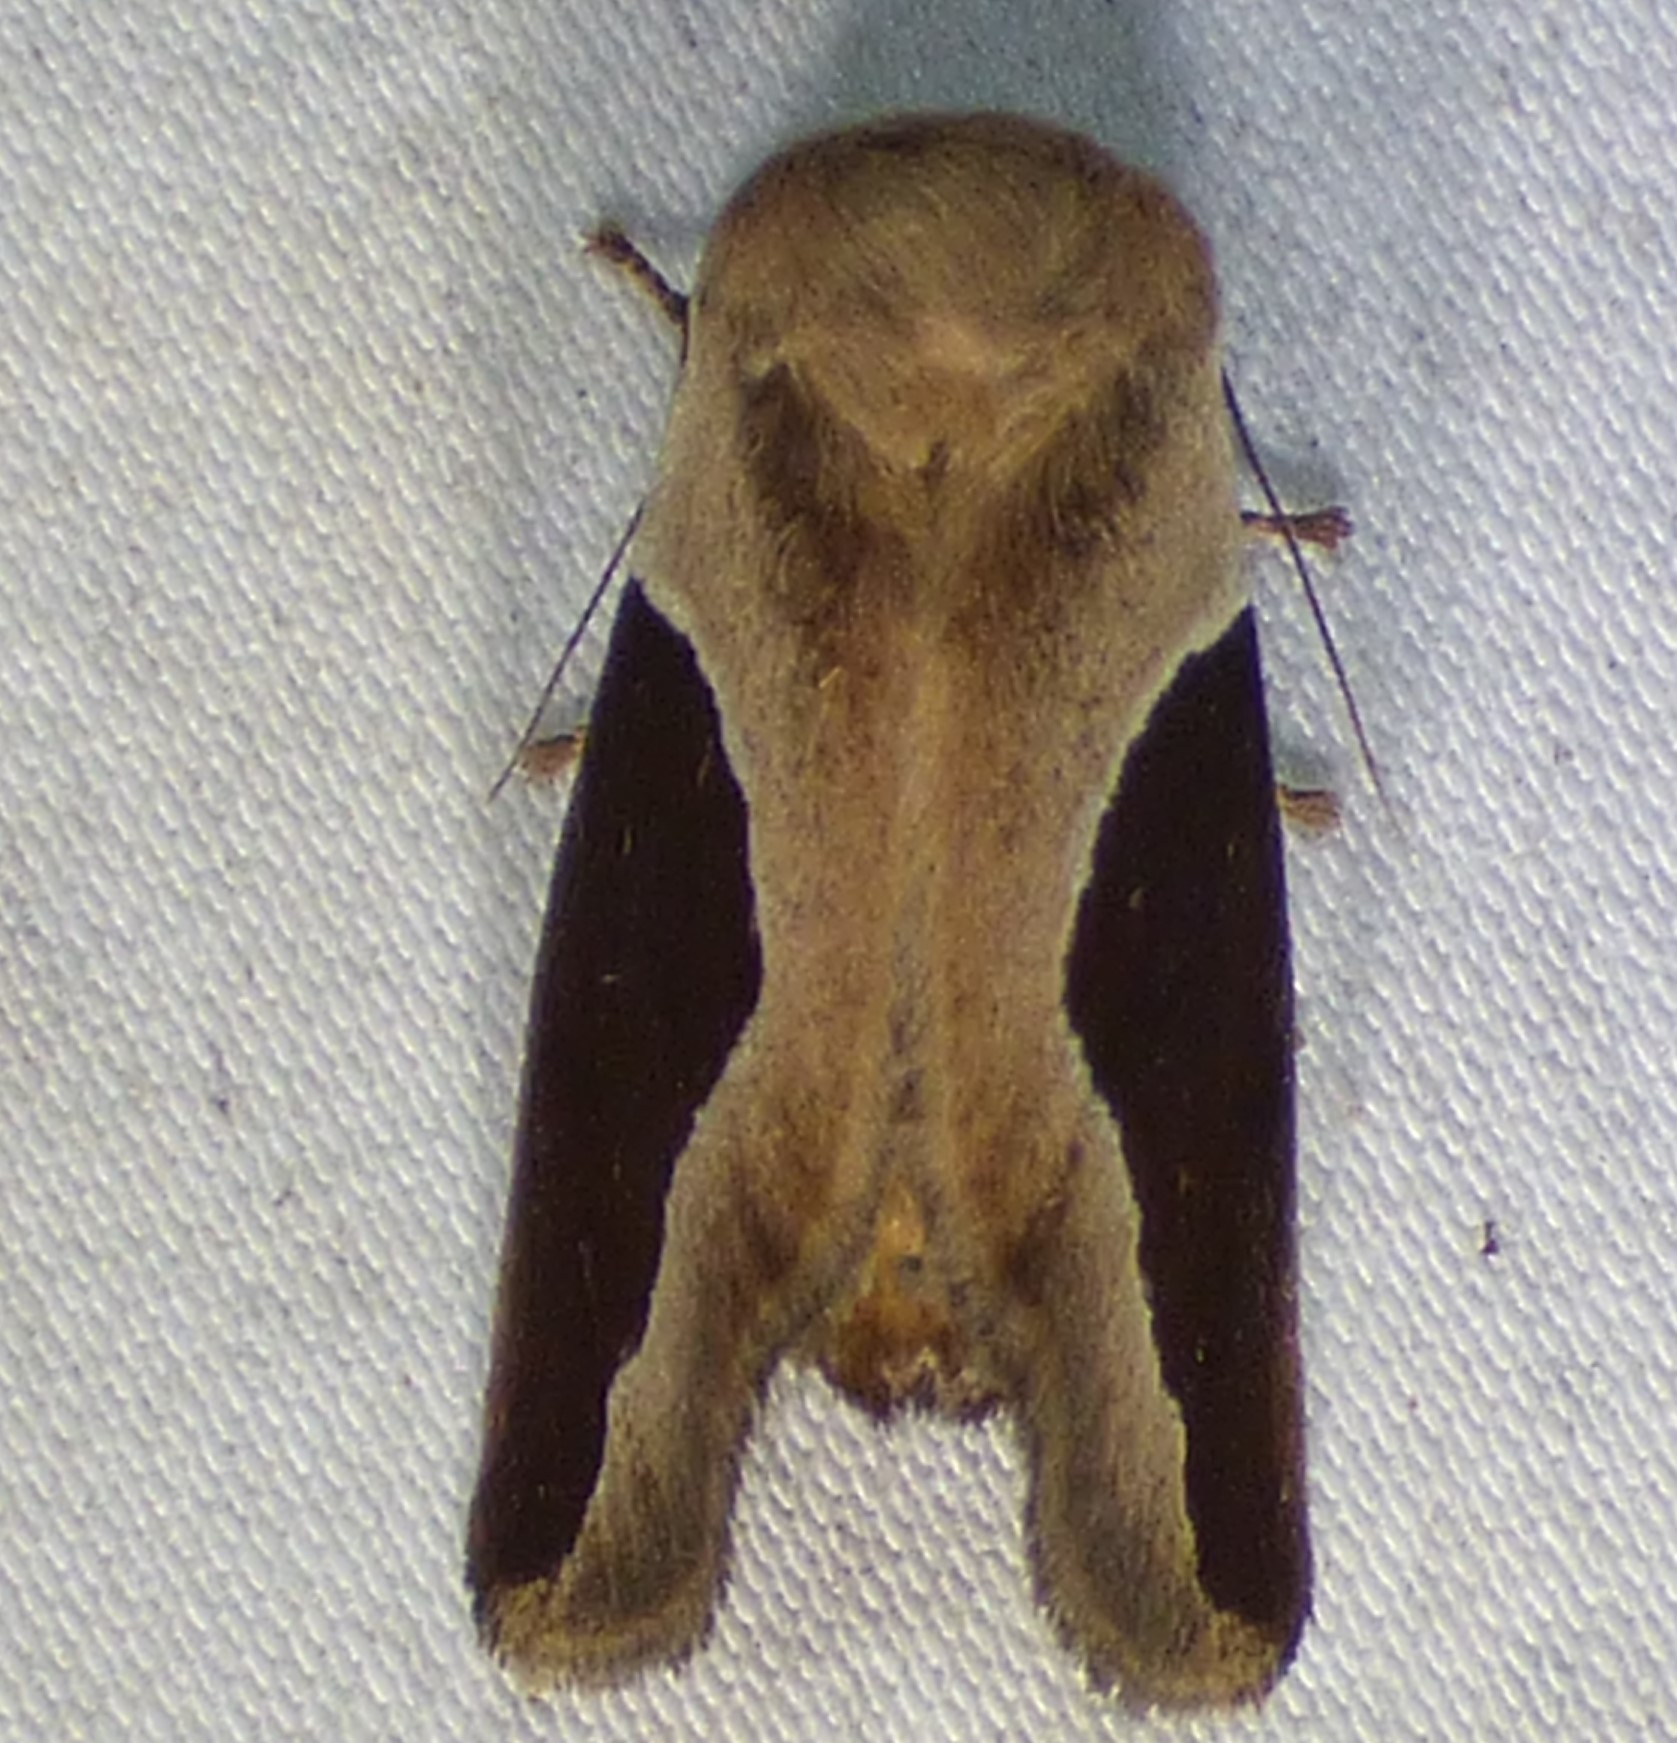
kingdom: Animalia
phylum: Arthropoda
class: Insecta
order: Lepidoptera
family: Limacodidae
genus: Prolimacodes
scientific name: Prolimacodes badia
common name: Skiff moth
